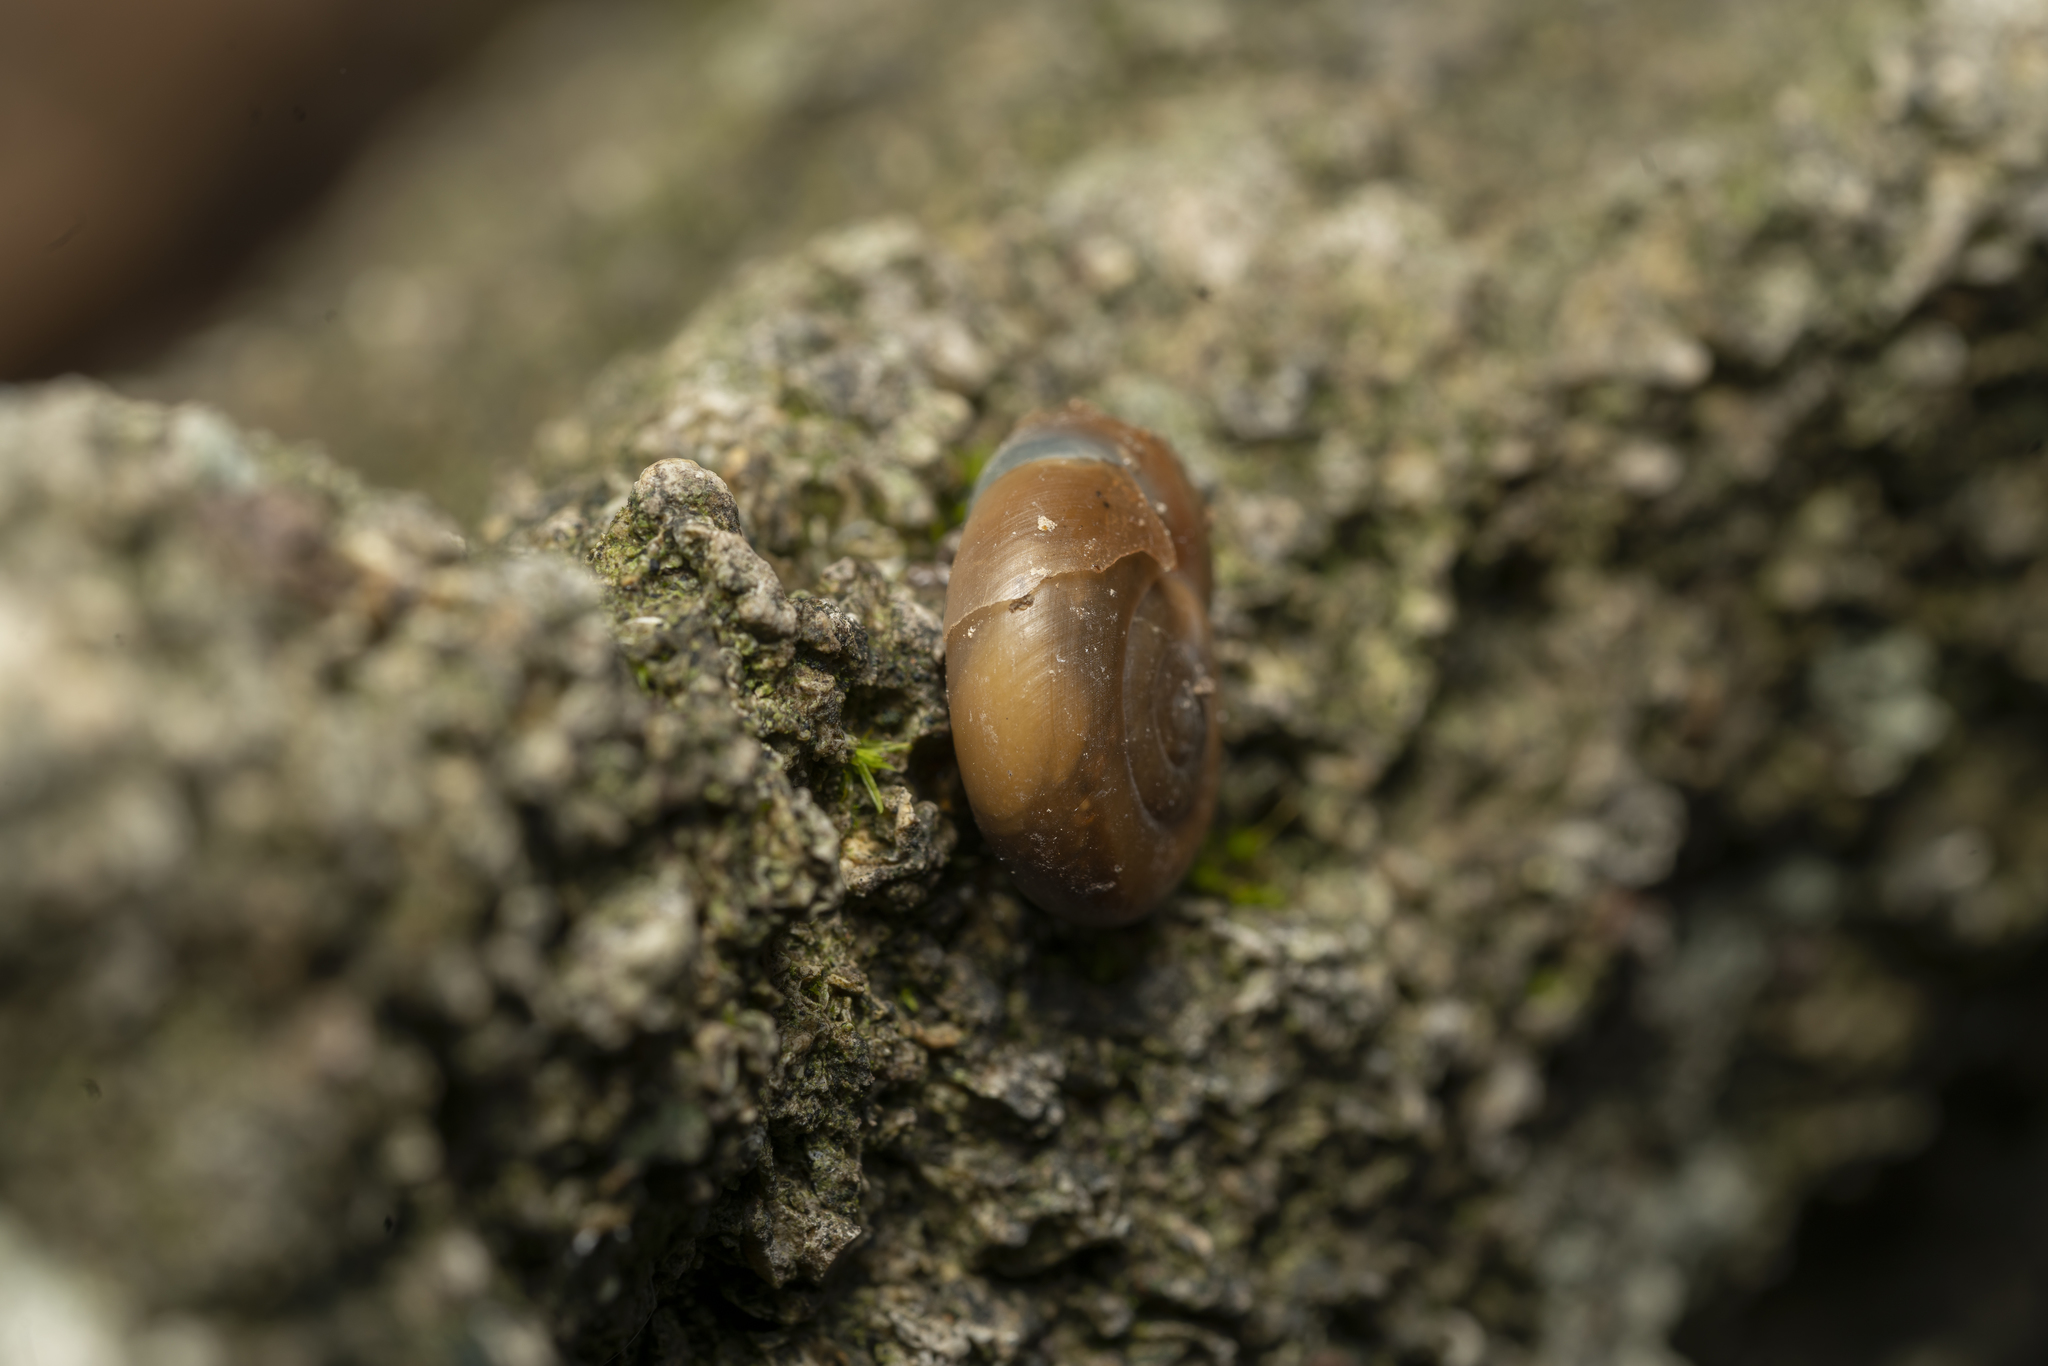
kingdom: Animalia
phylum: Mollusca
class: Gastropoda
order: Stylommatophora
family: Oxychilidae
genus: Eopolita
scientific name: Eopolita protensa
